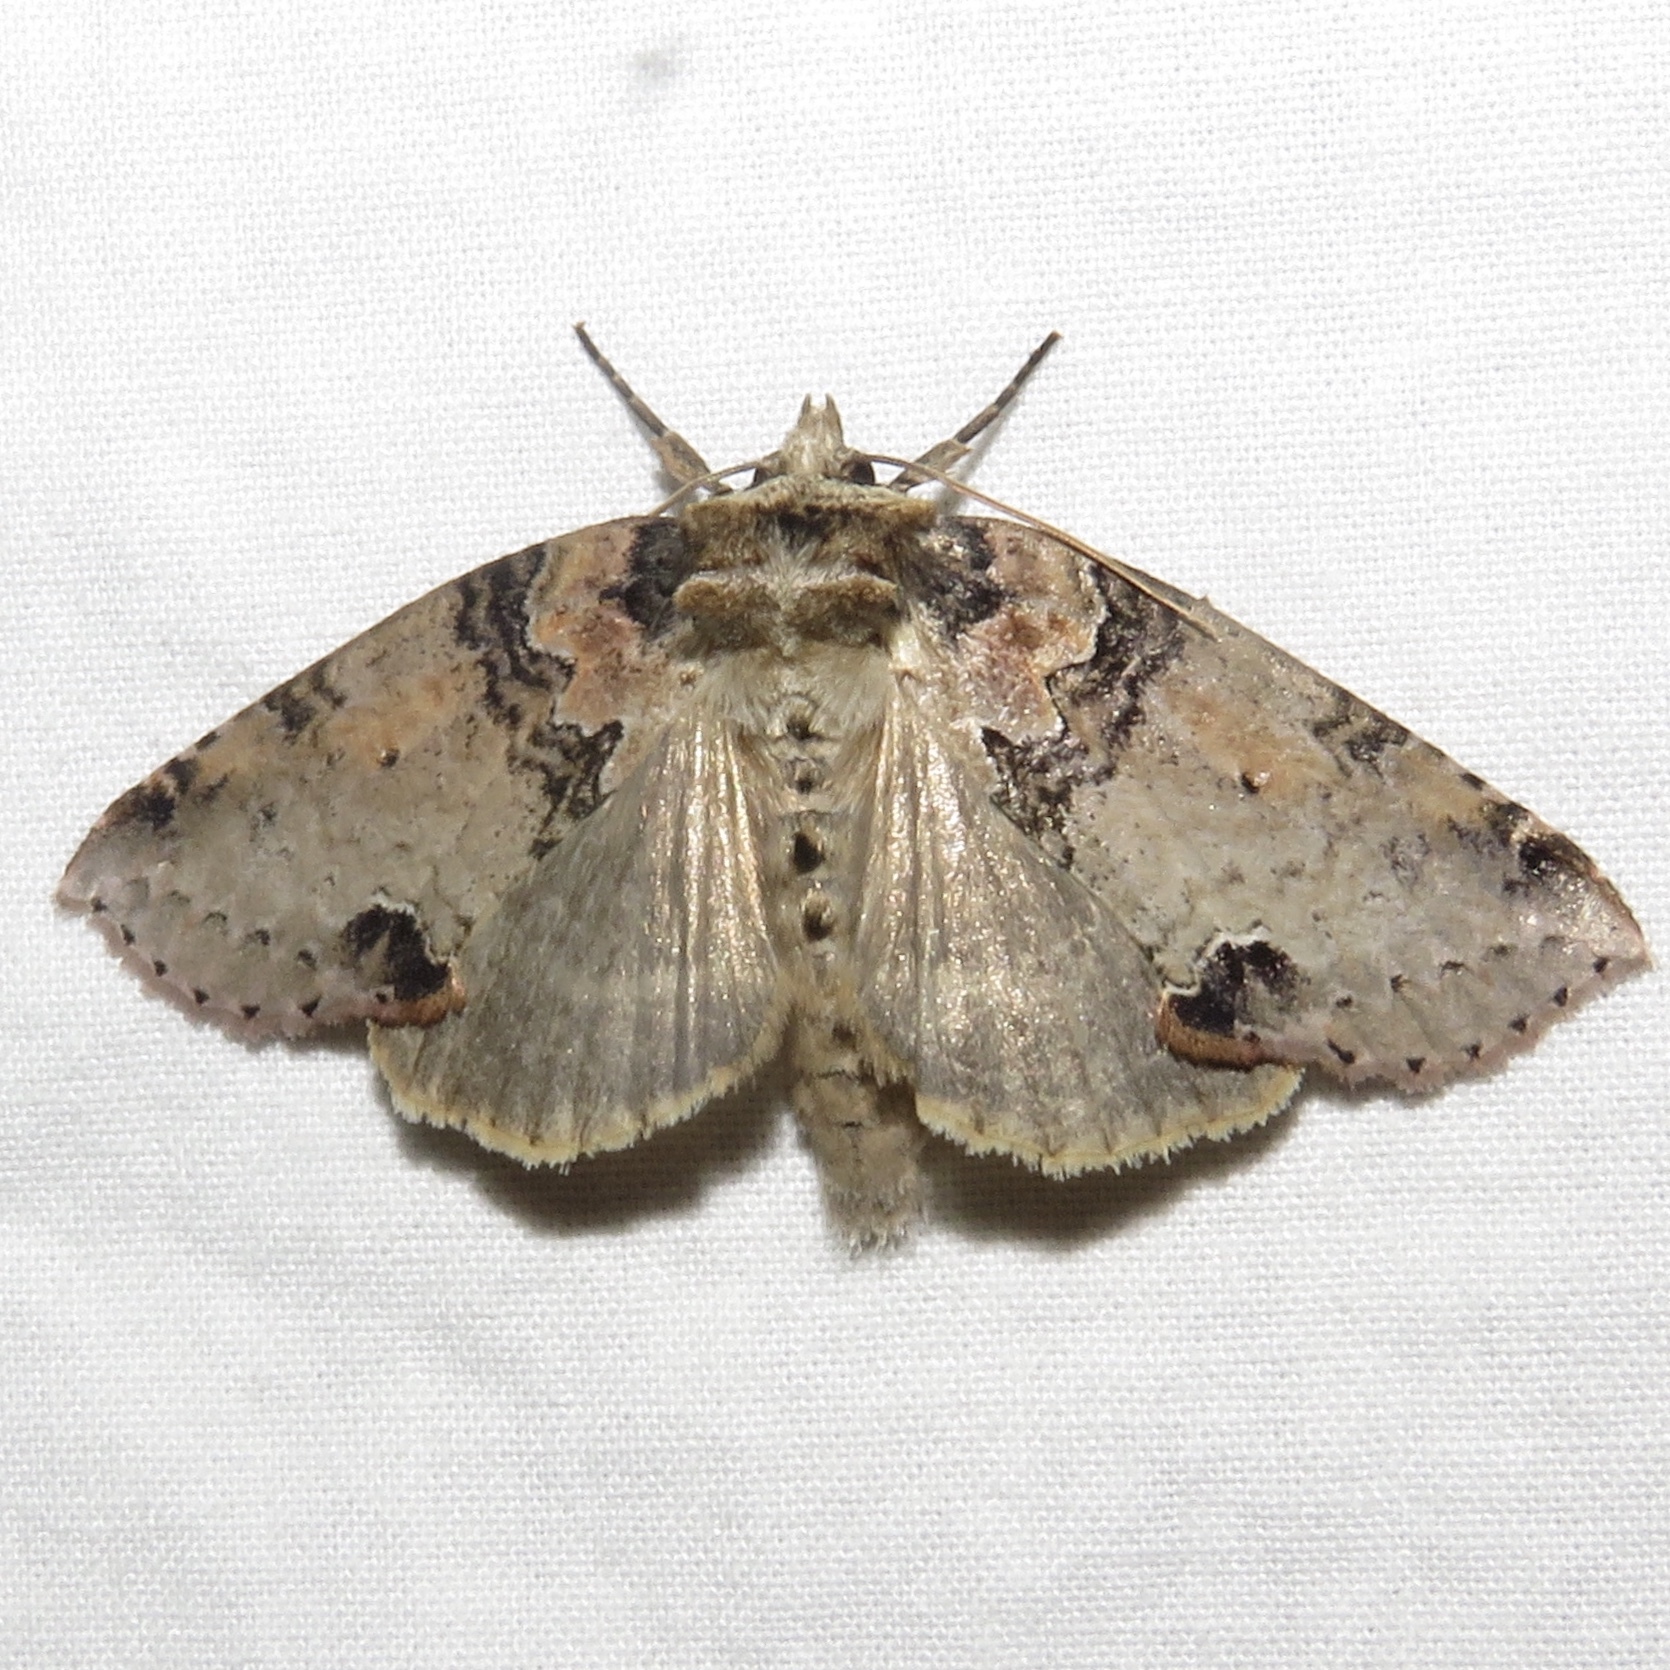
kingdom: Animalia
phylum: Arthropoda
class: Insecta
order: Lepidoptera
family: Drepanidae
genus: Pseudothyatira
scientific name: Pseudothyatira cymatophoroides
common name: Tufted thyatirid moth
